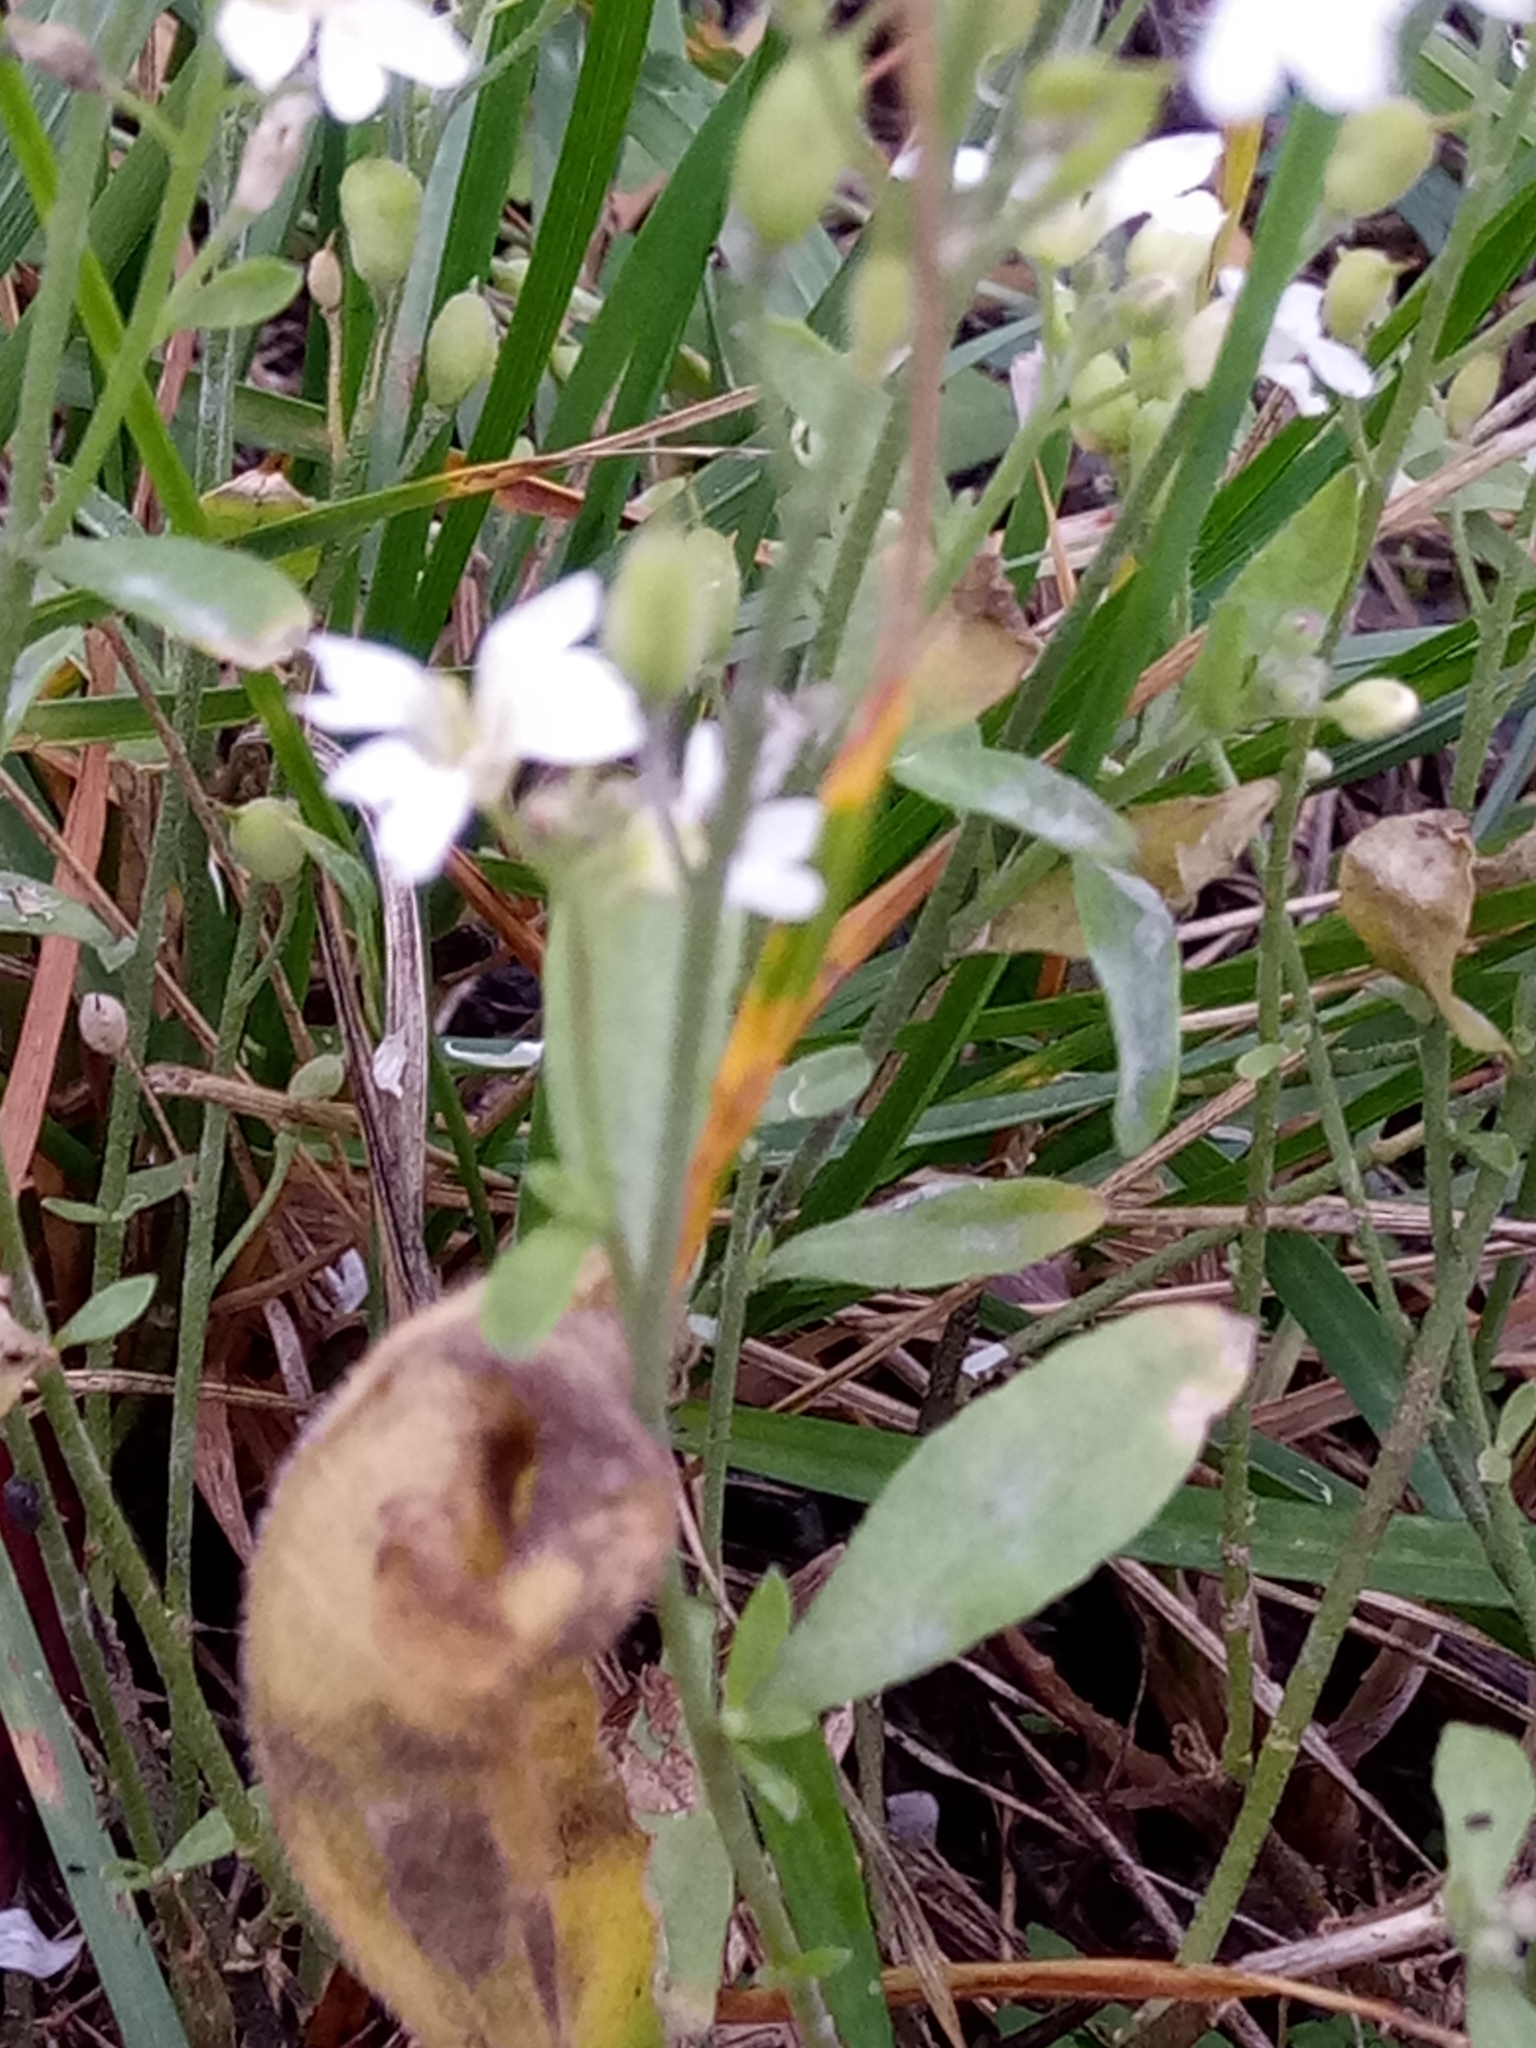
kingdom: Plantae
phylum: Tracheophyta
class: Magnoliopsida
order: Brassicales
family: Brassicaceae
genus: Berteroa
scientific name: Berteroa incana
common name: Hoary alison
